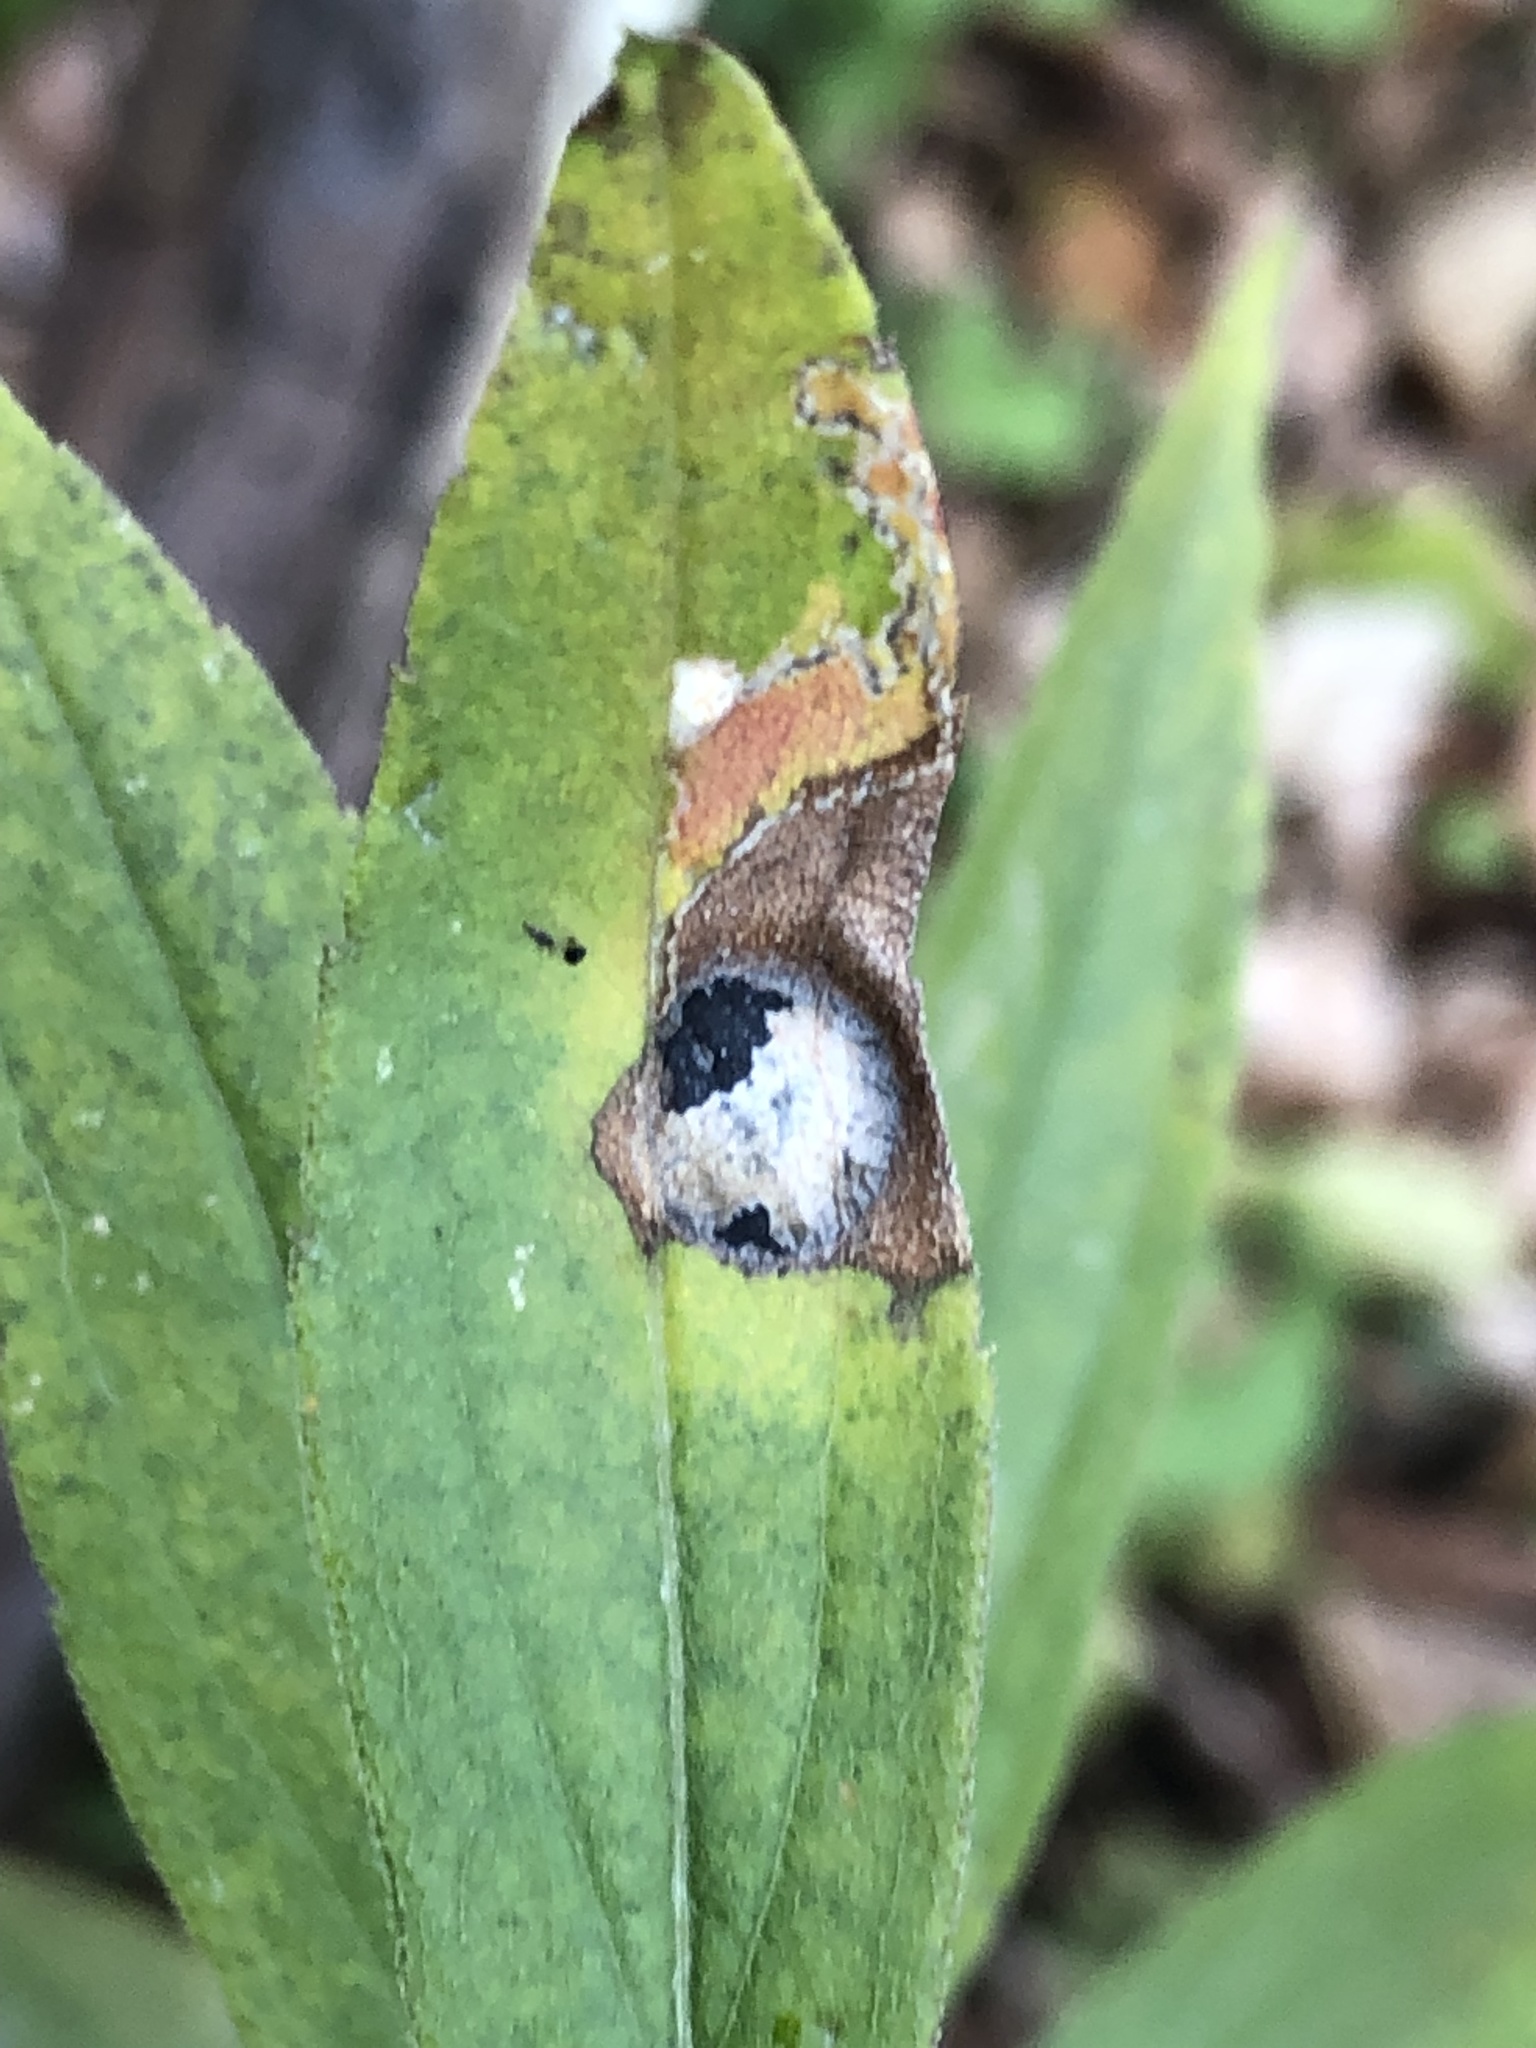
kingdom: Animalia
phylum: Arthropoda
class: Insecta
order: Diptera
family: Cecidomyiidae
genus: Asteromyia
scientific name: Asteromyia carbonifera
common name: Carbonifera goldenrod gall midge
